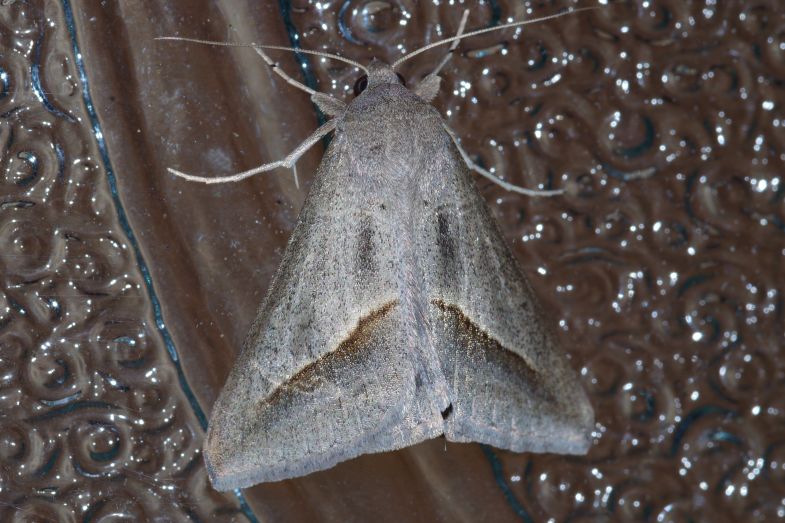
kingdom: Animalia
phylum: Arthropoda
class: Insecta
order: Lepidoptera
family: Erebidae
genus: Mocis
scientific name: Mocis frugalis
